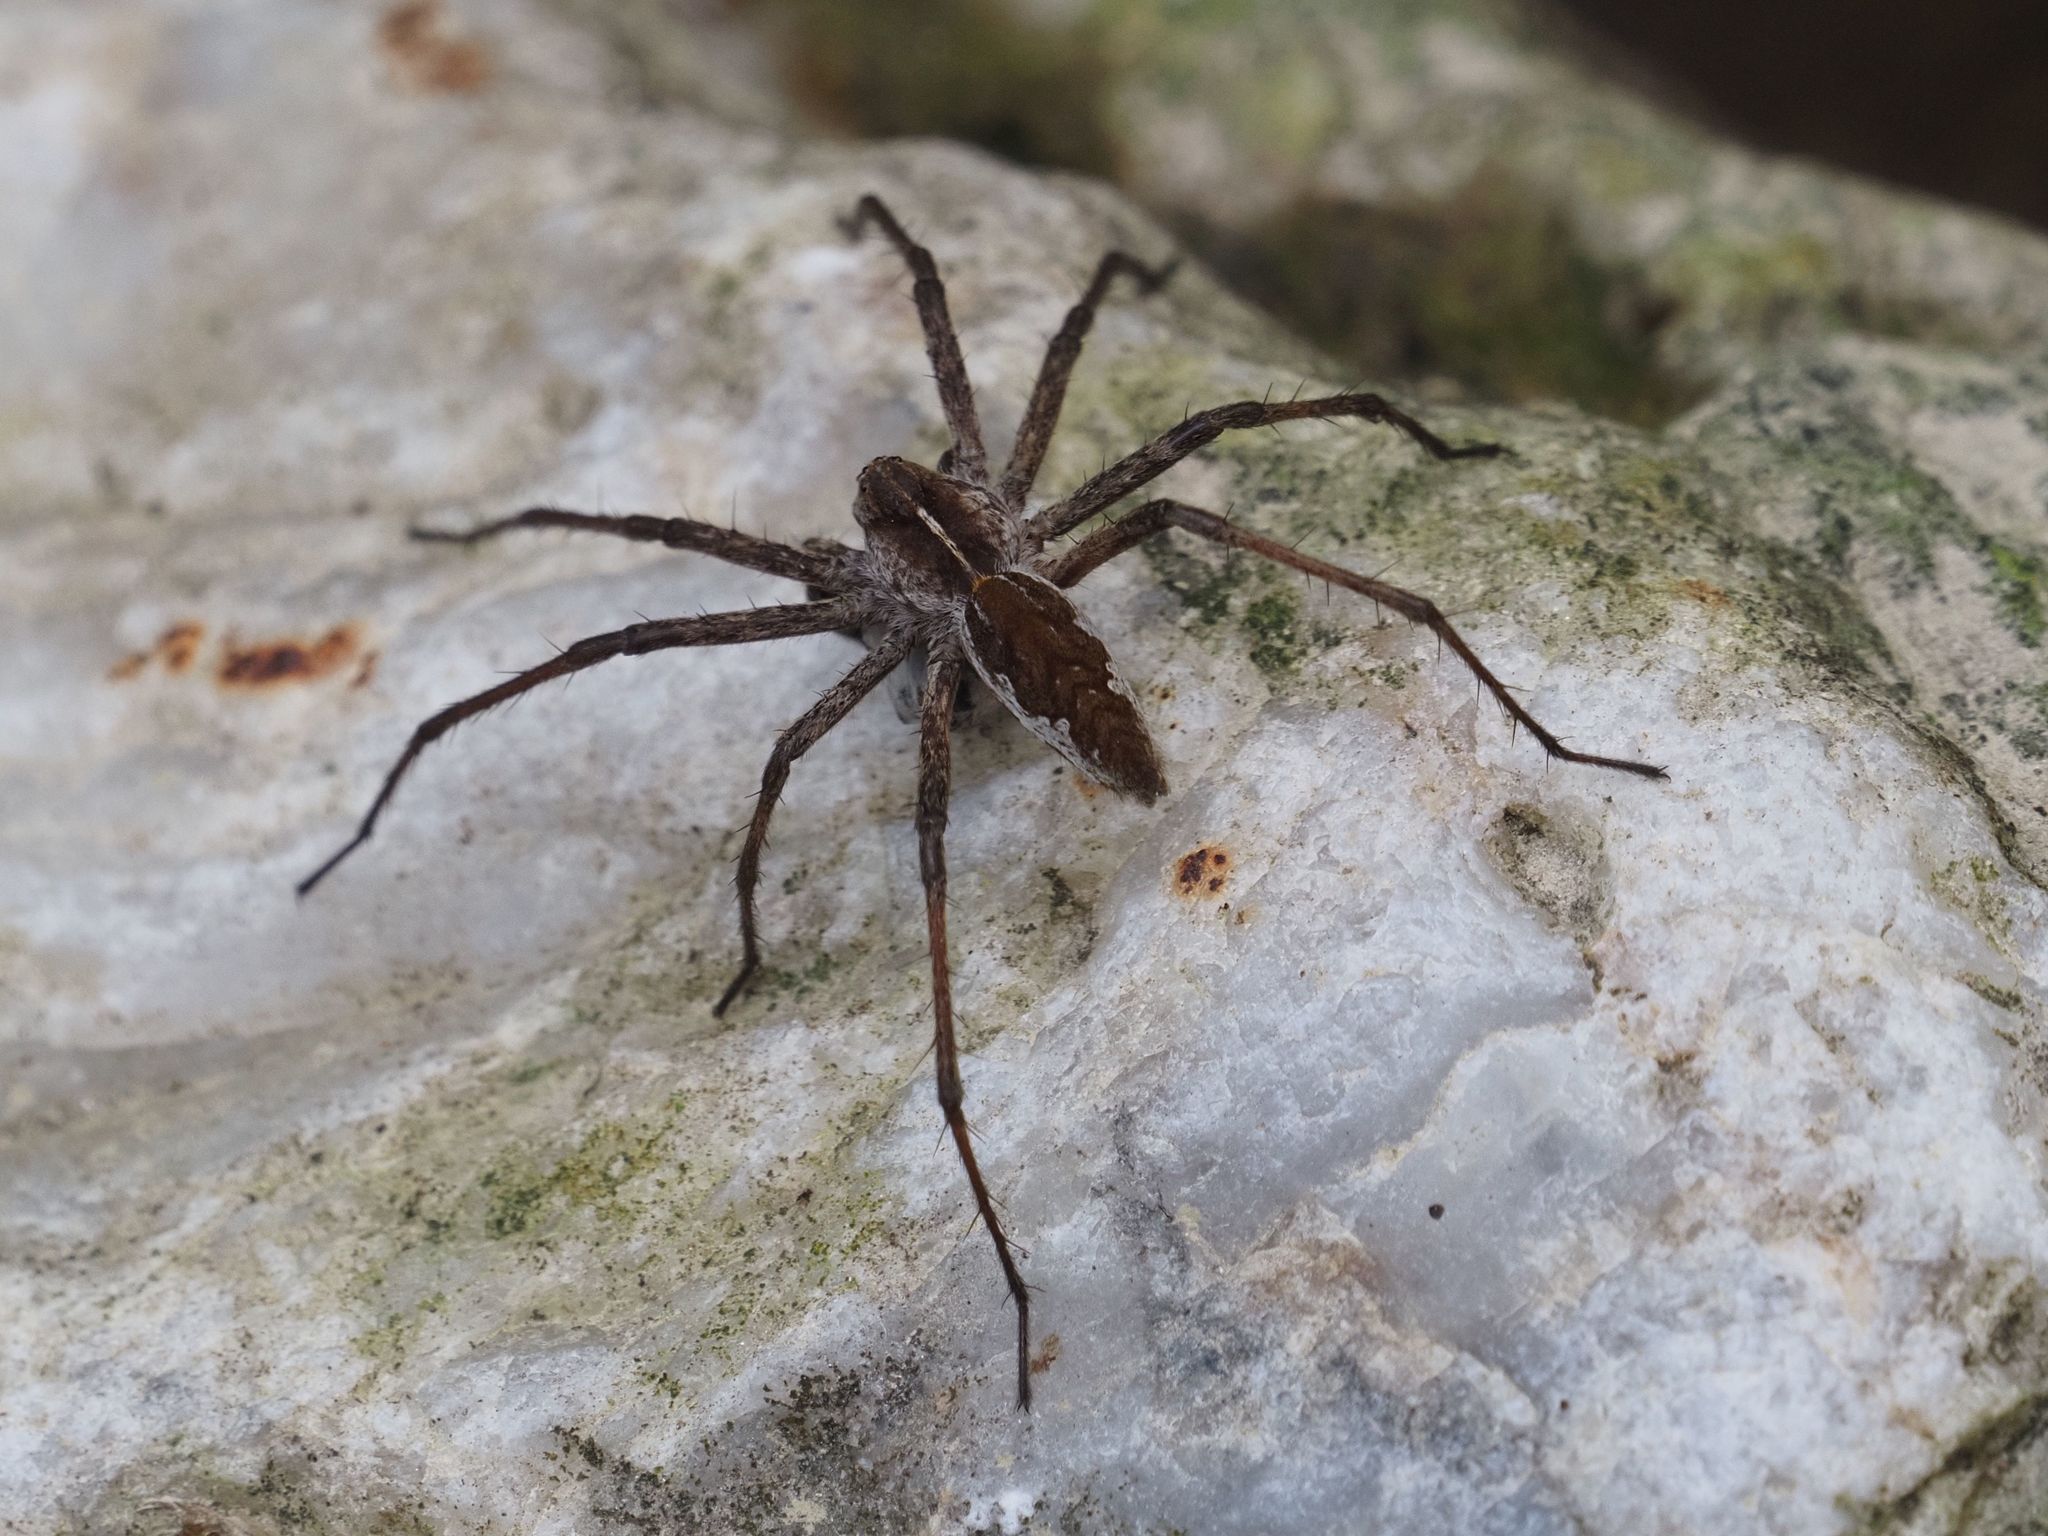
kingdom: Animalia
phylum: Arthropoda
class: Arachnida
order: Araneae
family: Pisauridae
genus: Pisaura
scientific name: Pisaura mirabilis
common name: Tent spider
